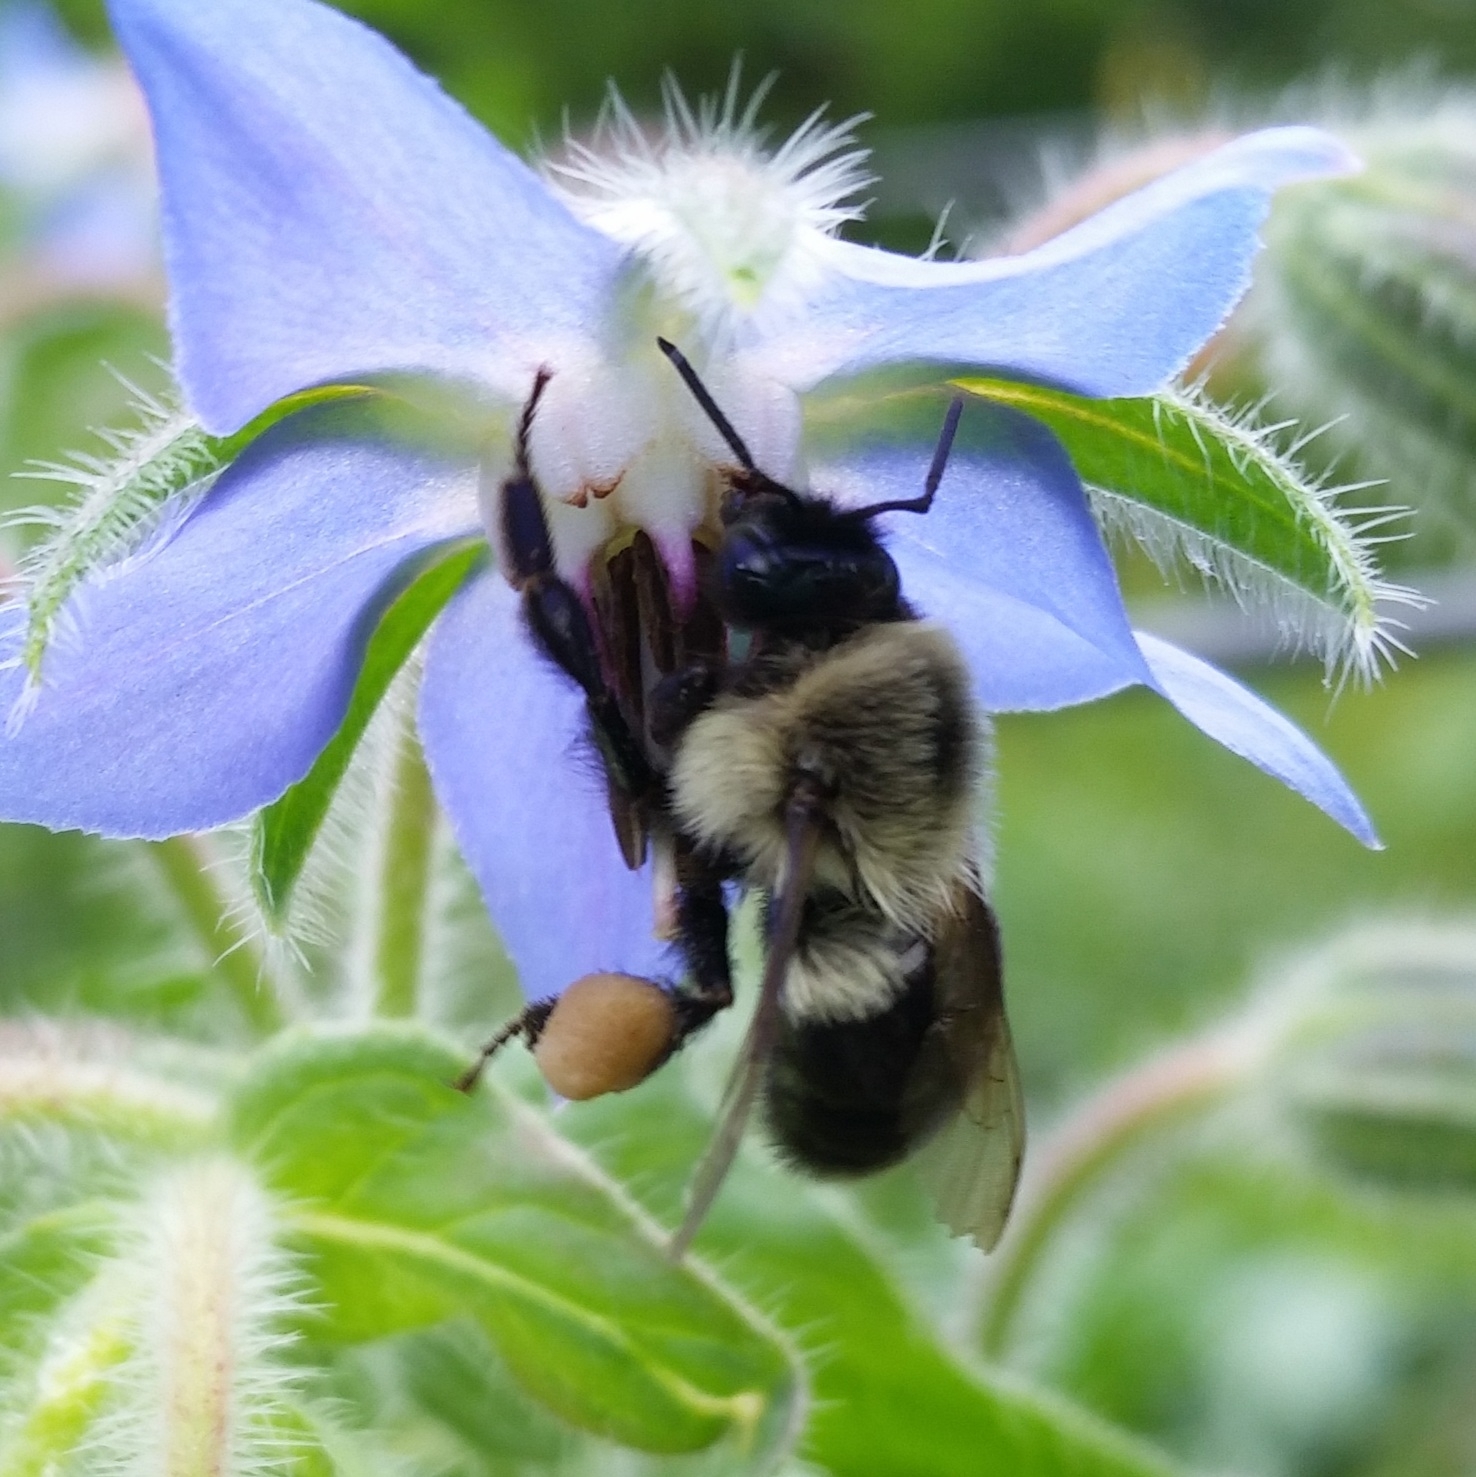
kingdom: Animalia
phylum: Arthropoda
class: Insecta
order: Hymenoptera
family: Apidae
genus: Bombus
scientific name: Bombus impatiens
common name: Common eastern bumble bee
